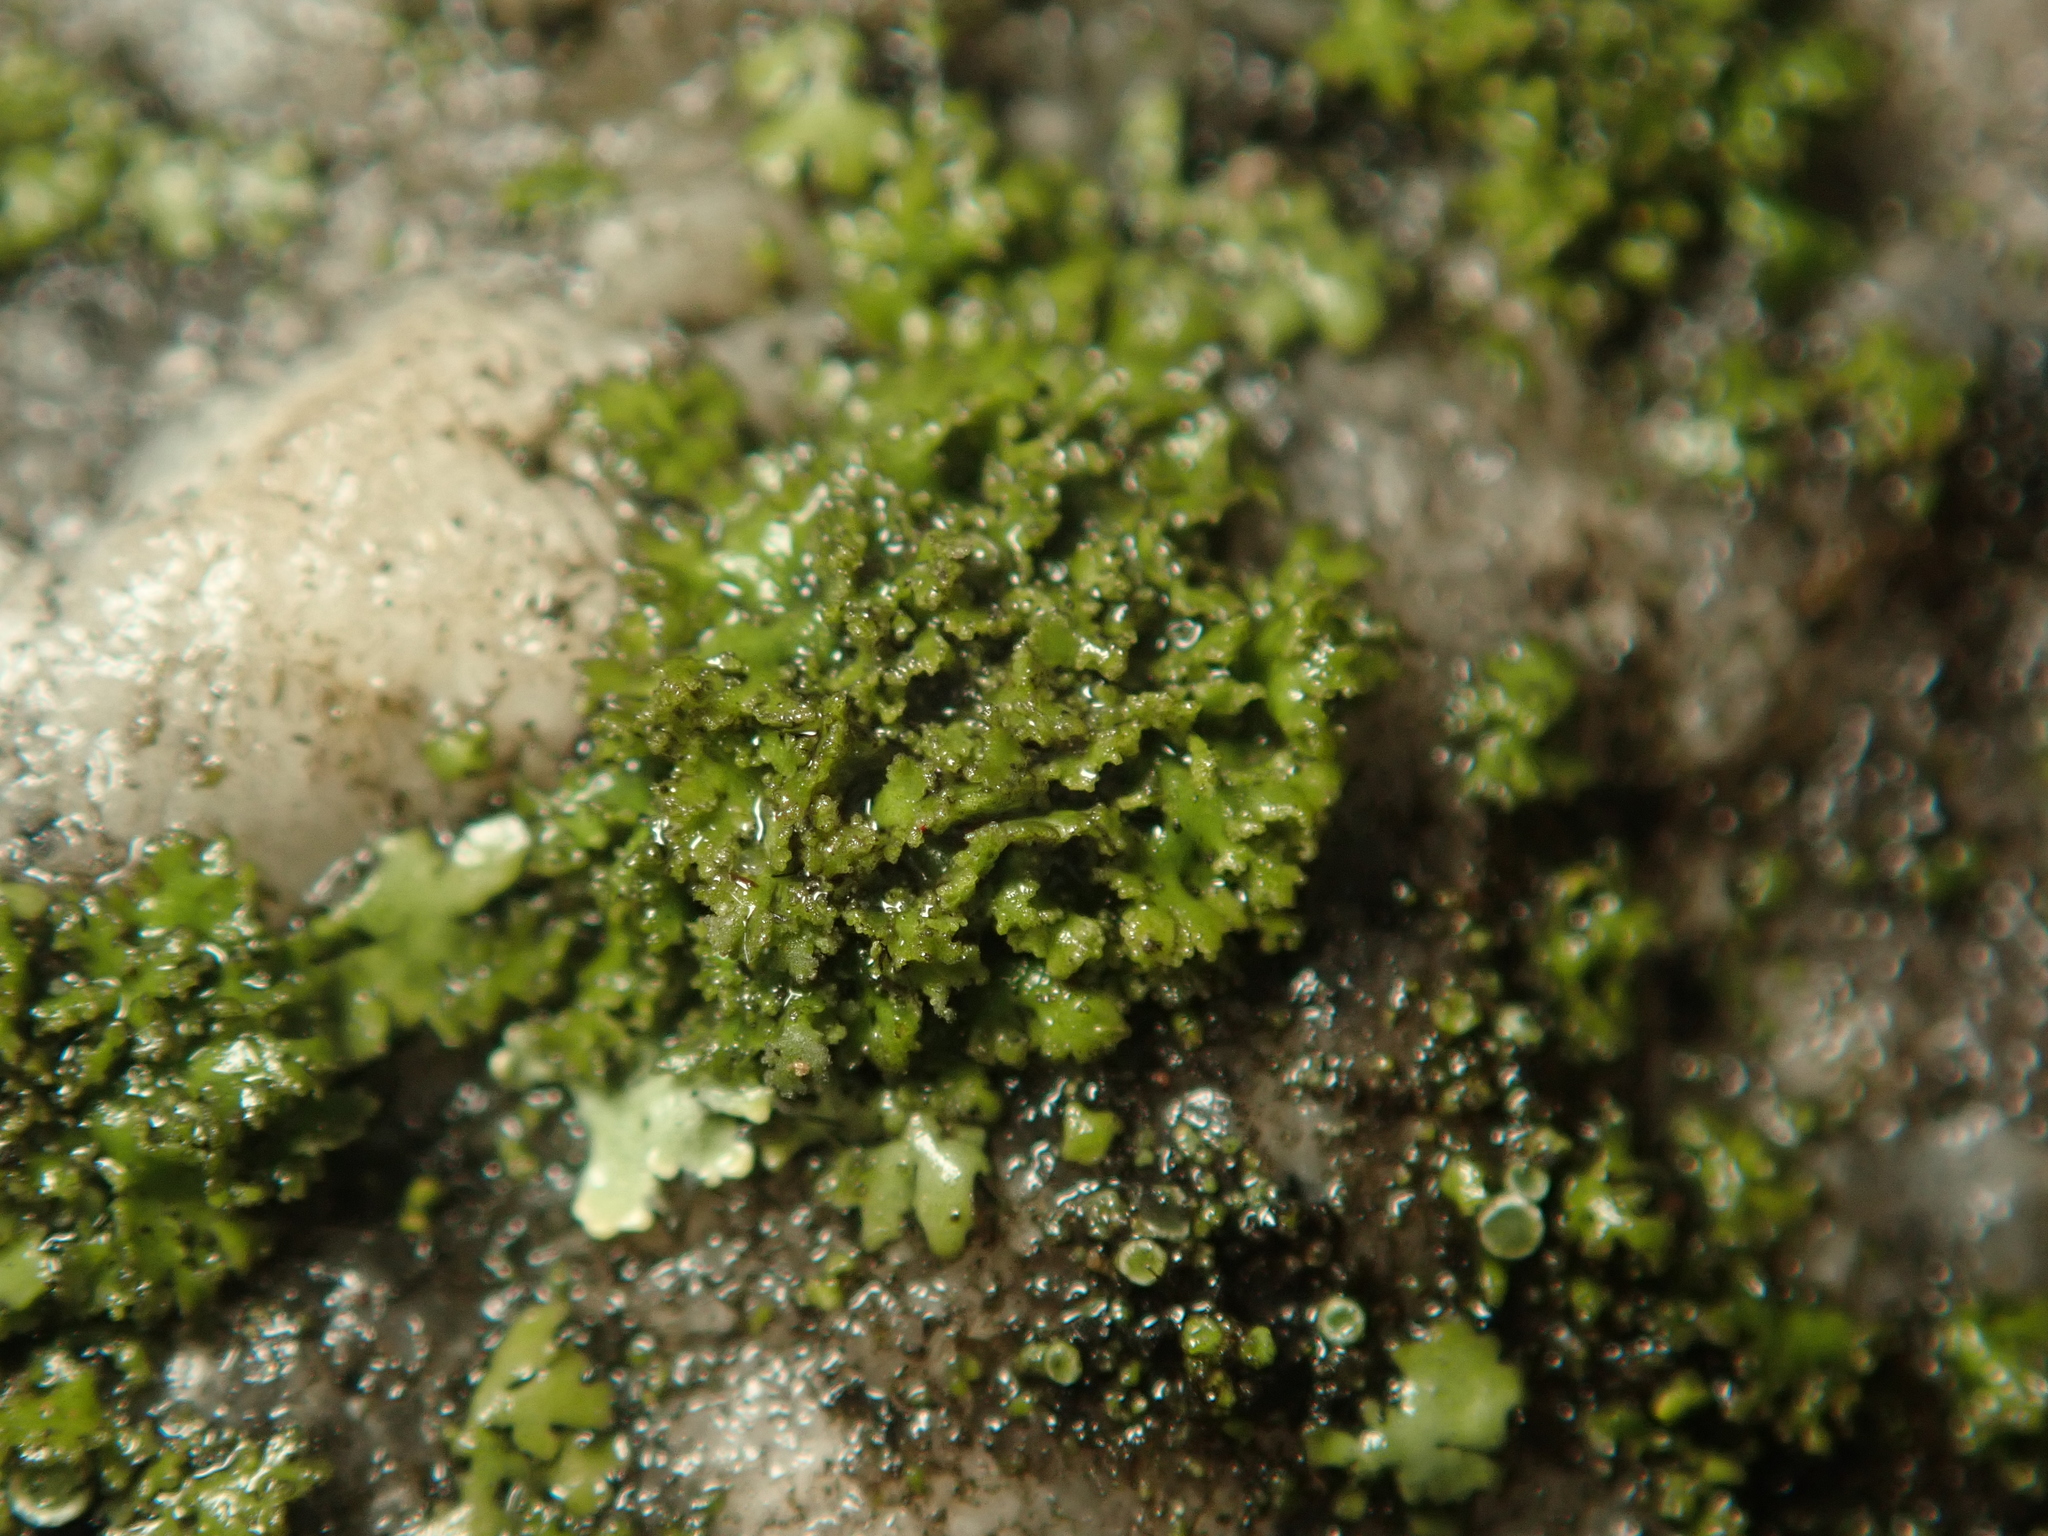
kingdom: Fungi
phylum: Ascomycota
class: Lecanoromycetes
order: Caliciales
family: Physciaceae
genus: Physciella
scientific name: Physciella nigricans
